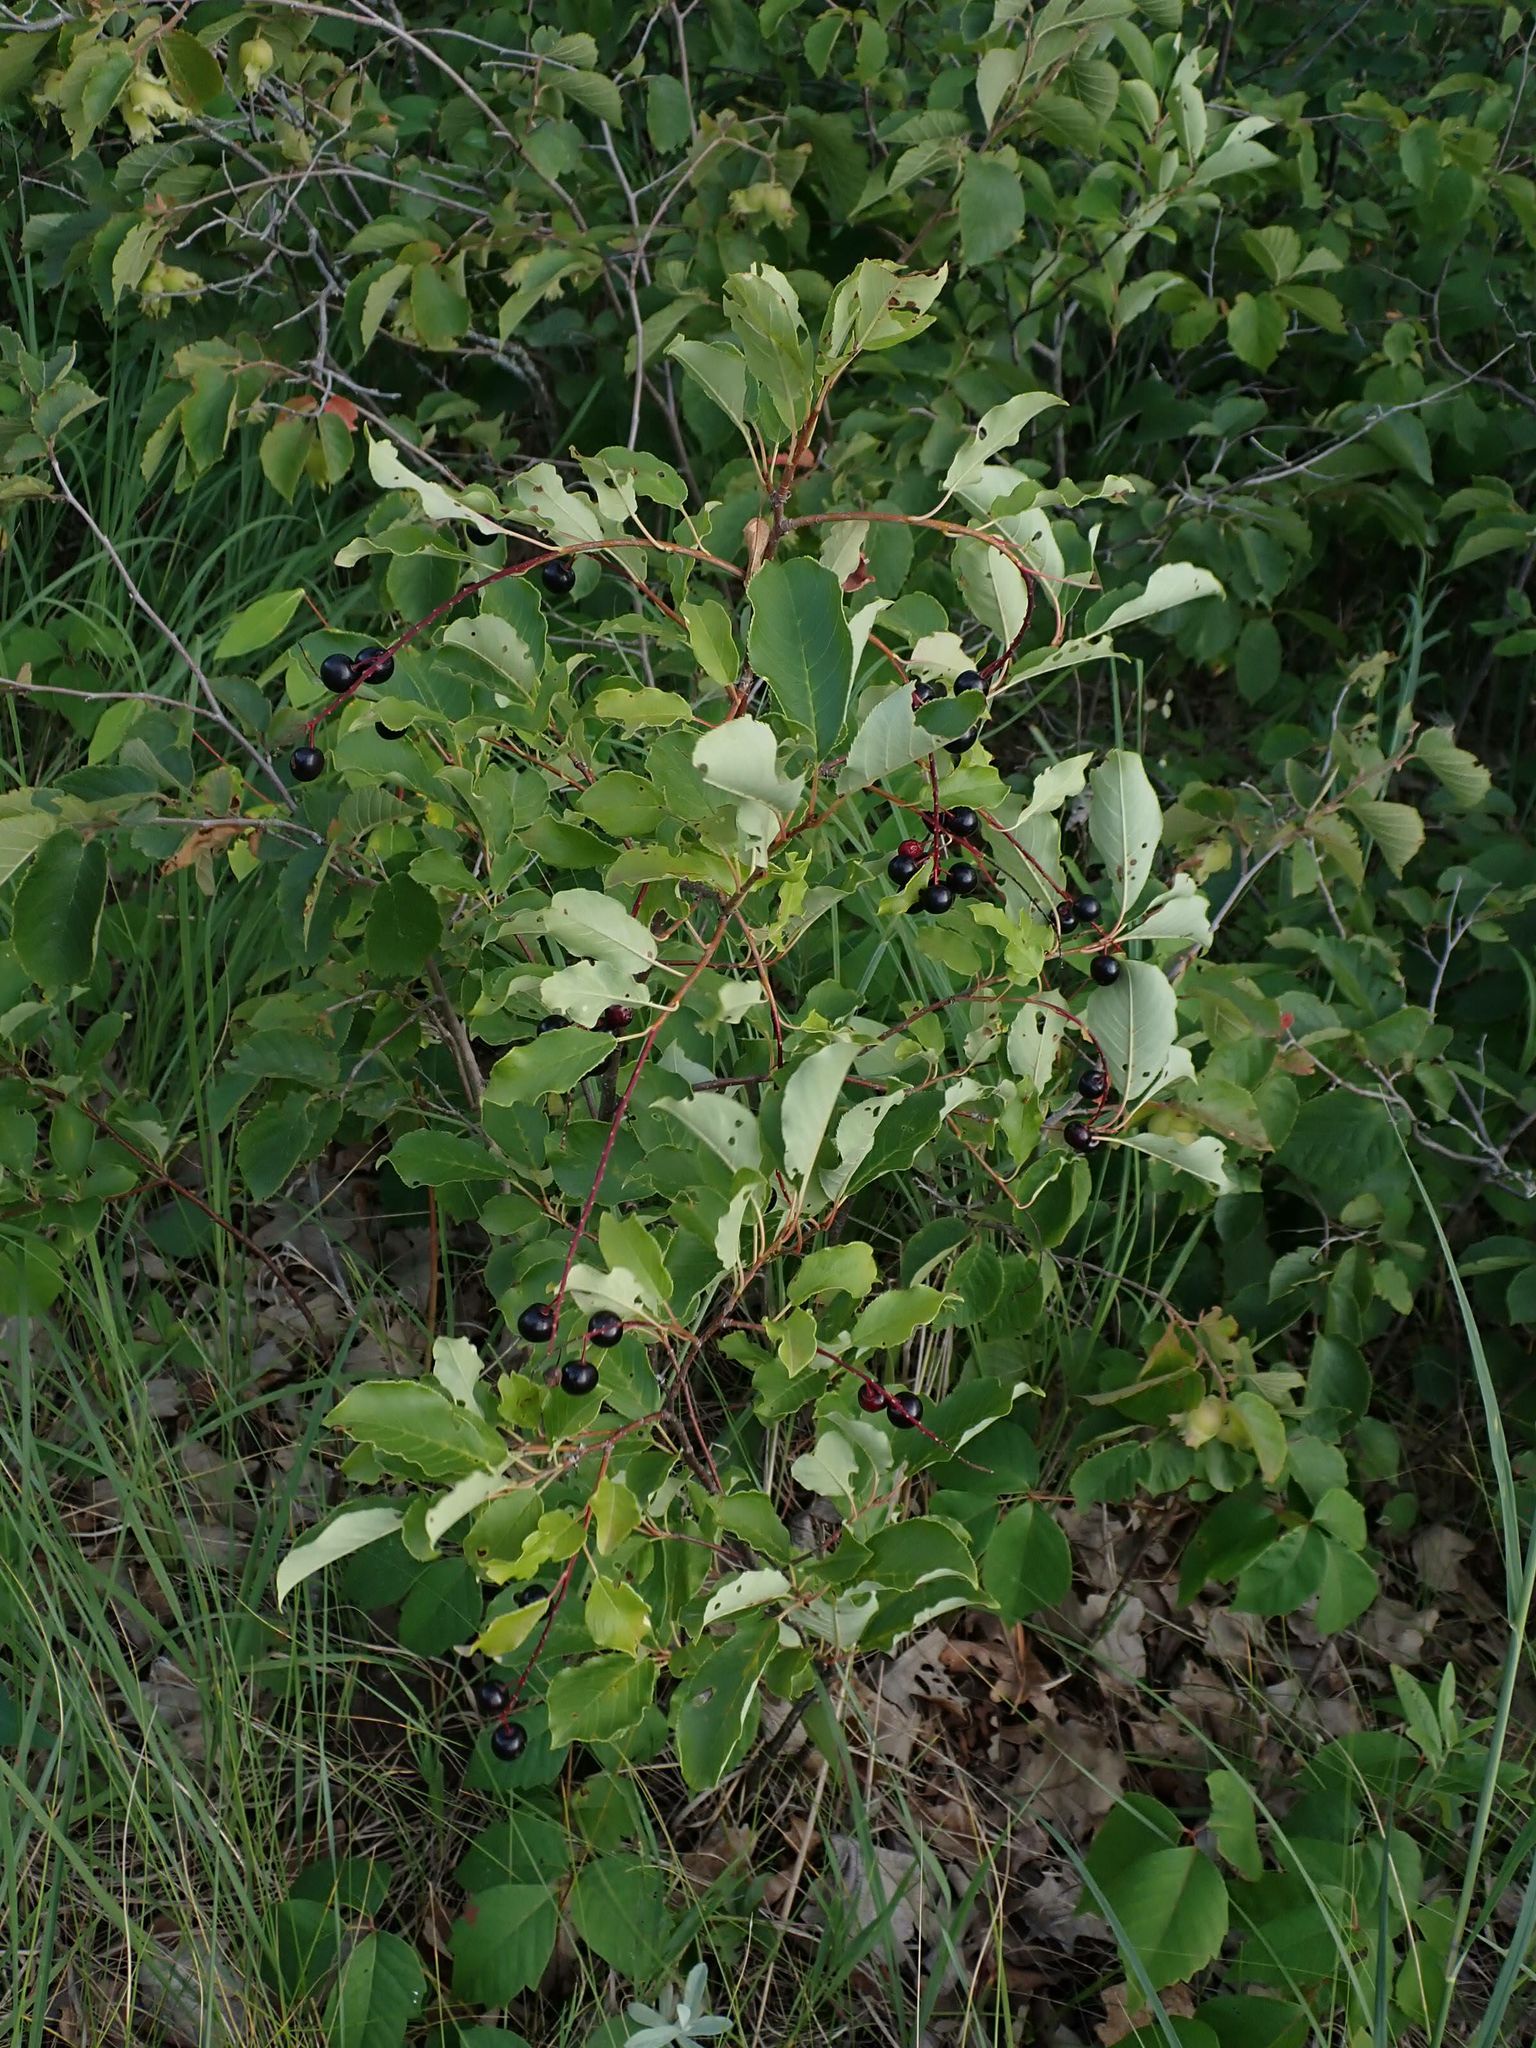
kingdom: Plantae
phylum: Tracheophyta
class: Magnoliopsida
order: Rosales
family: Rosaceae
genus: Prunus
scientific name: Prunus virginiana
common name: Chokecherry
